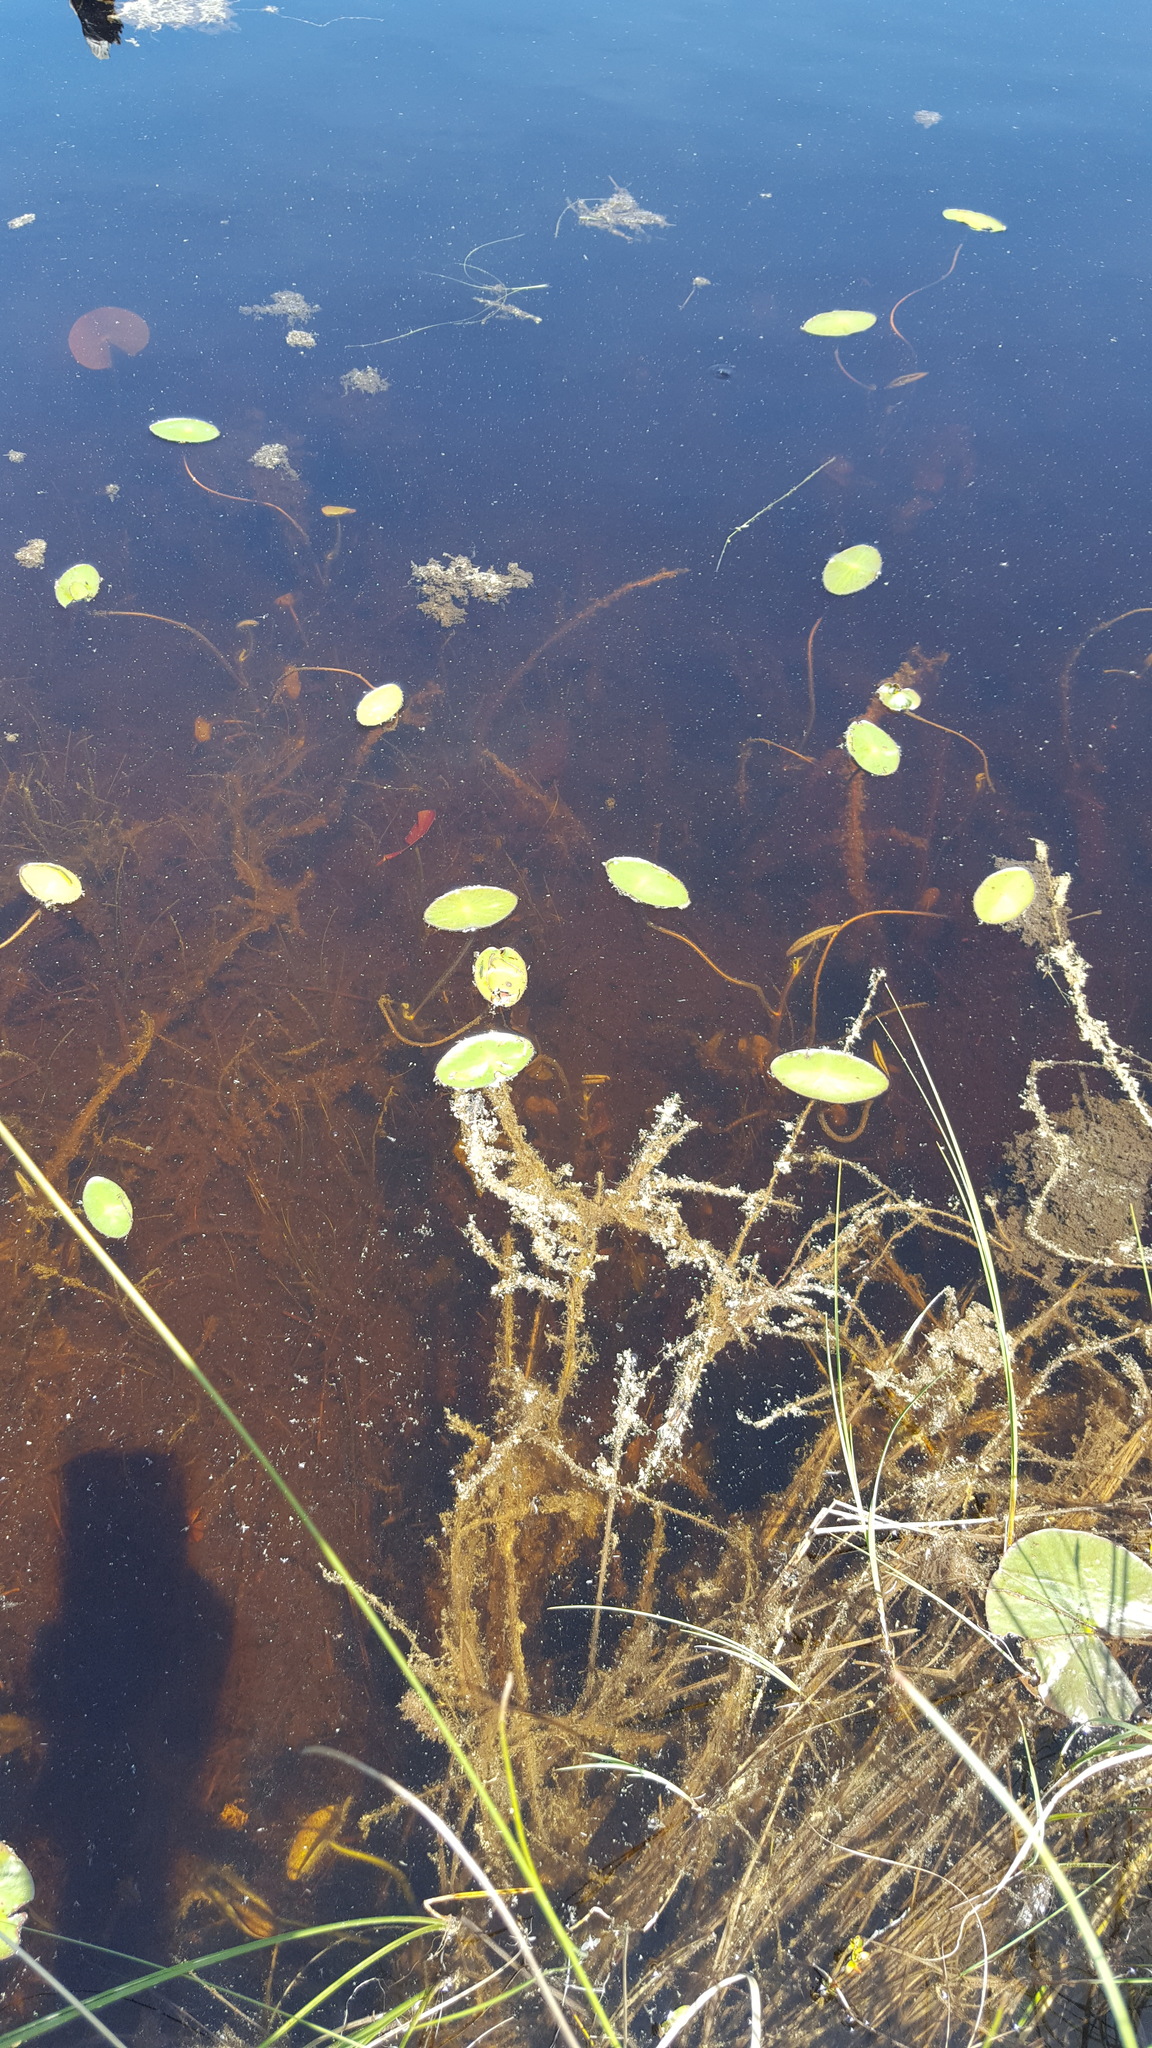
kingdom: Plantae
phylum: Tracheophyta
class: Magnoliopsida
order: Nymphaeales
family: Cabombaceae
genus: Brasenia
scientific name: Brasenia schreberi
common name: Water-shield
